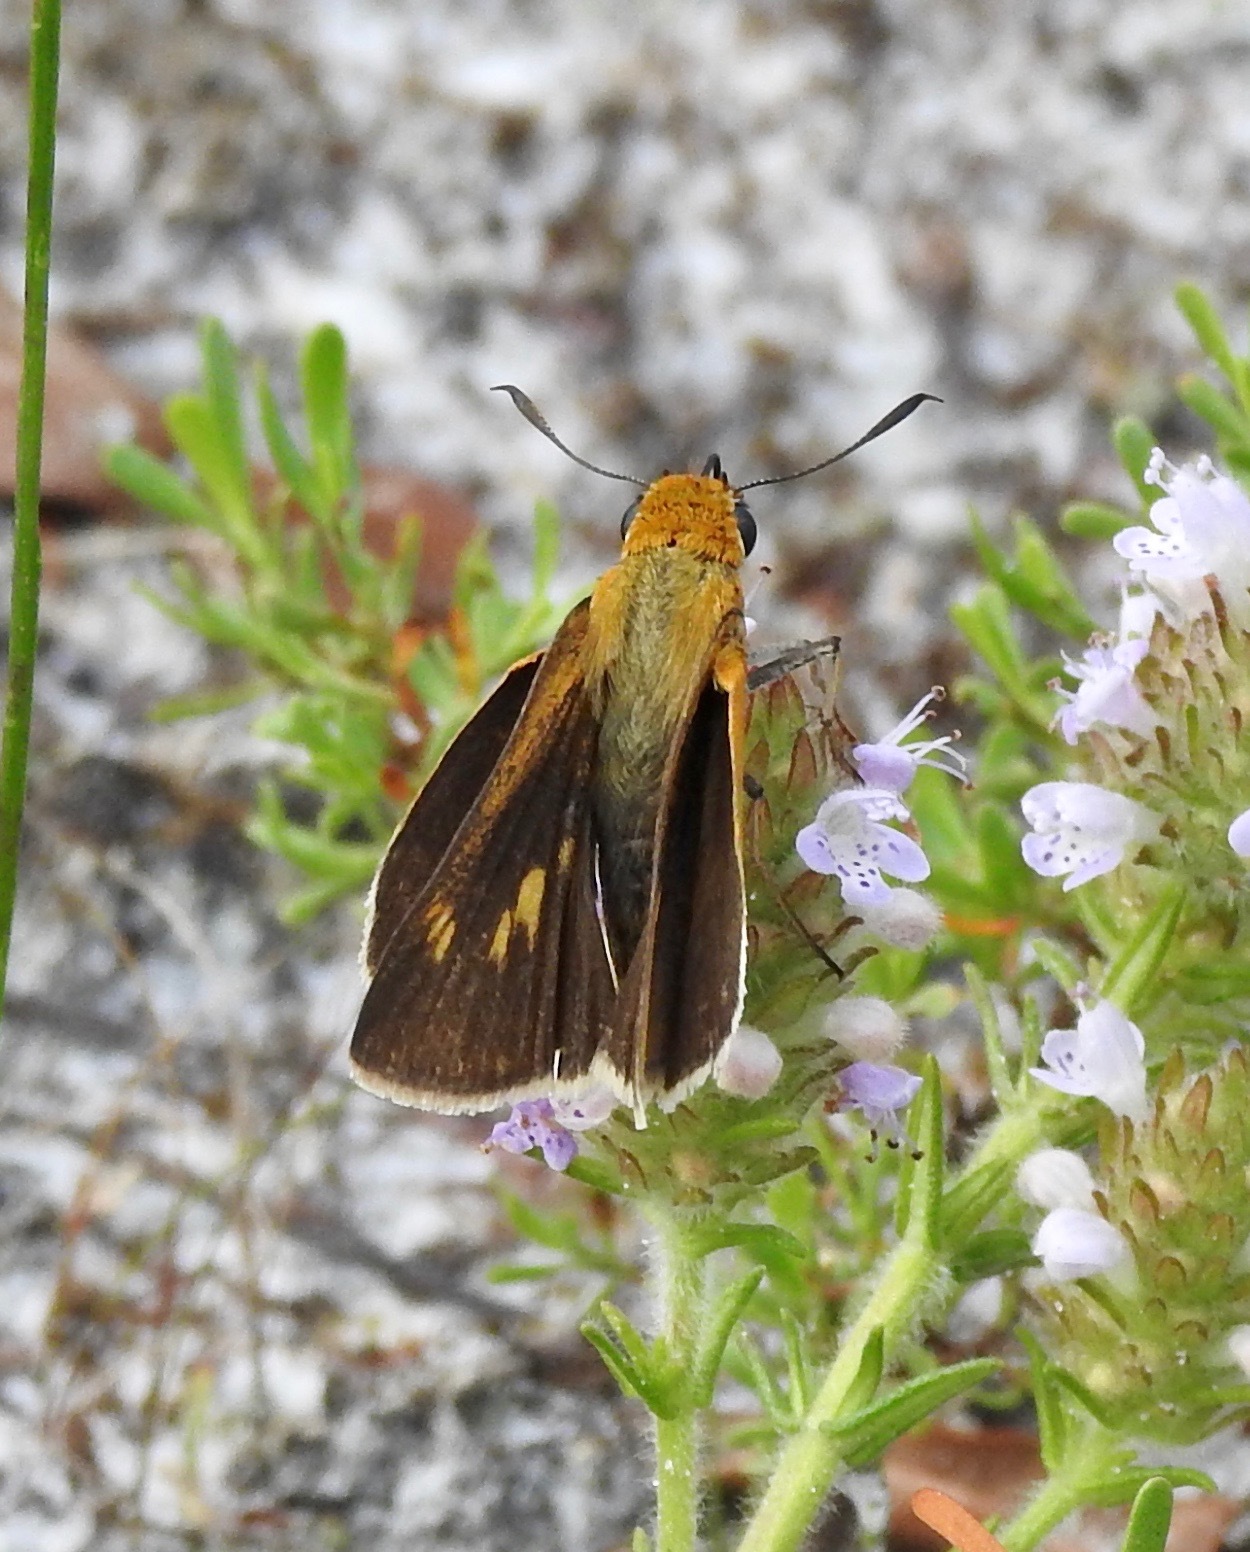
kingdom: Animalia
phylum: Arthropoda
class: Insecta
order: Lepidoptera
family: Hesperiidae
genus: Euphyes
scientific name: Euphyes arpa
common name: Palmetto skipper
